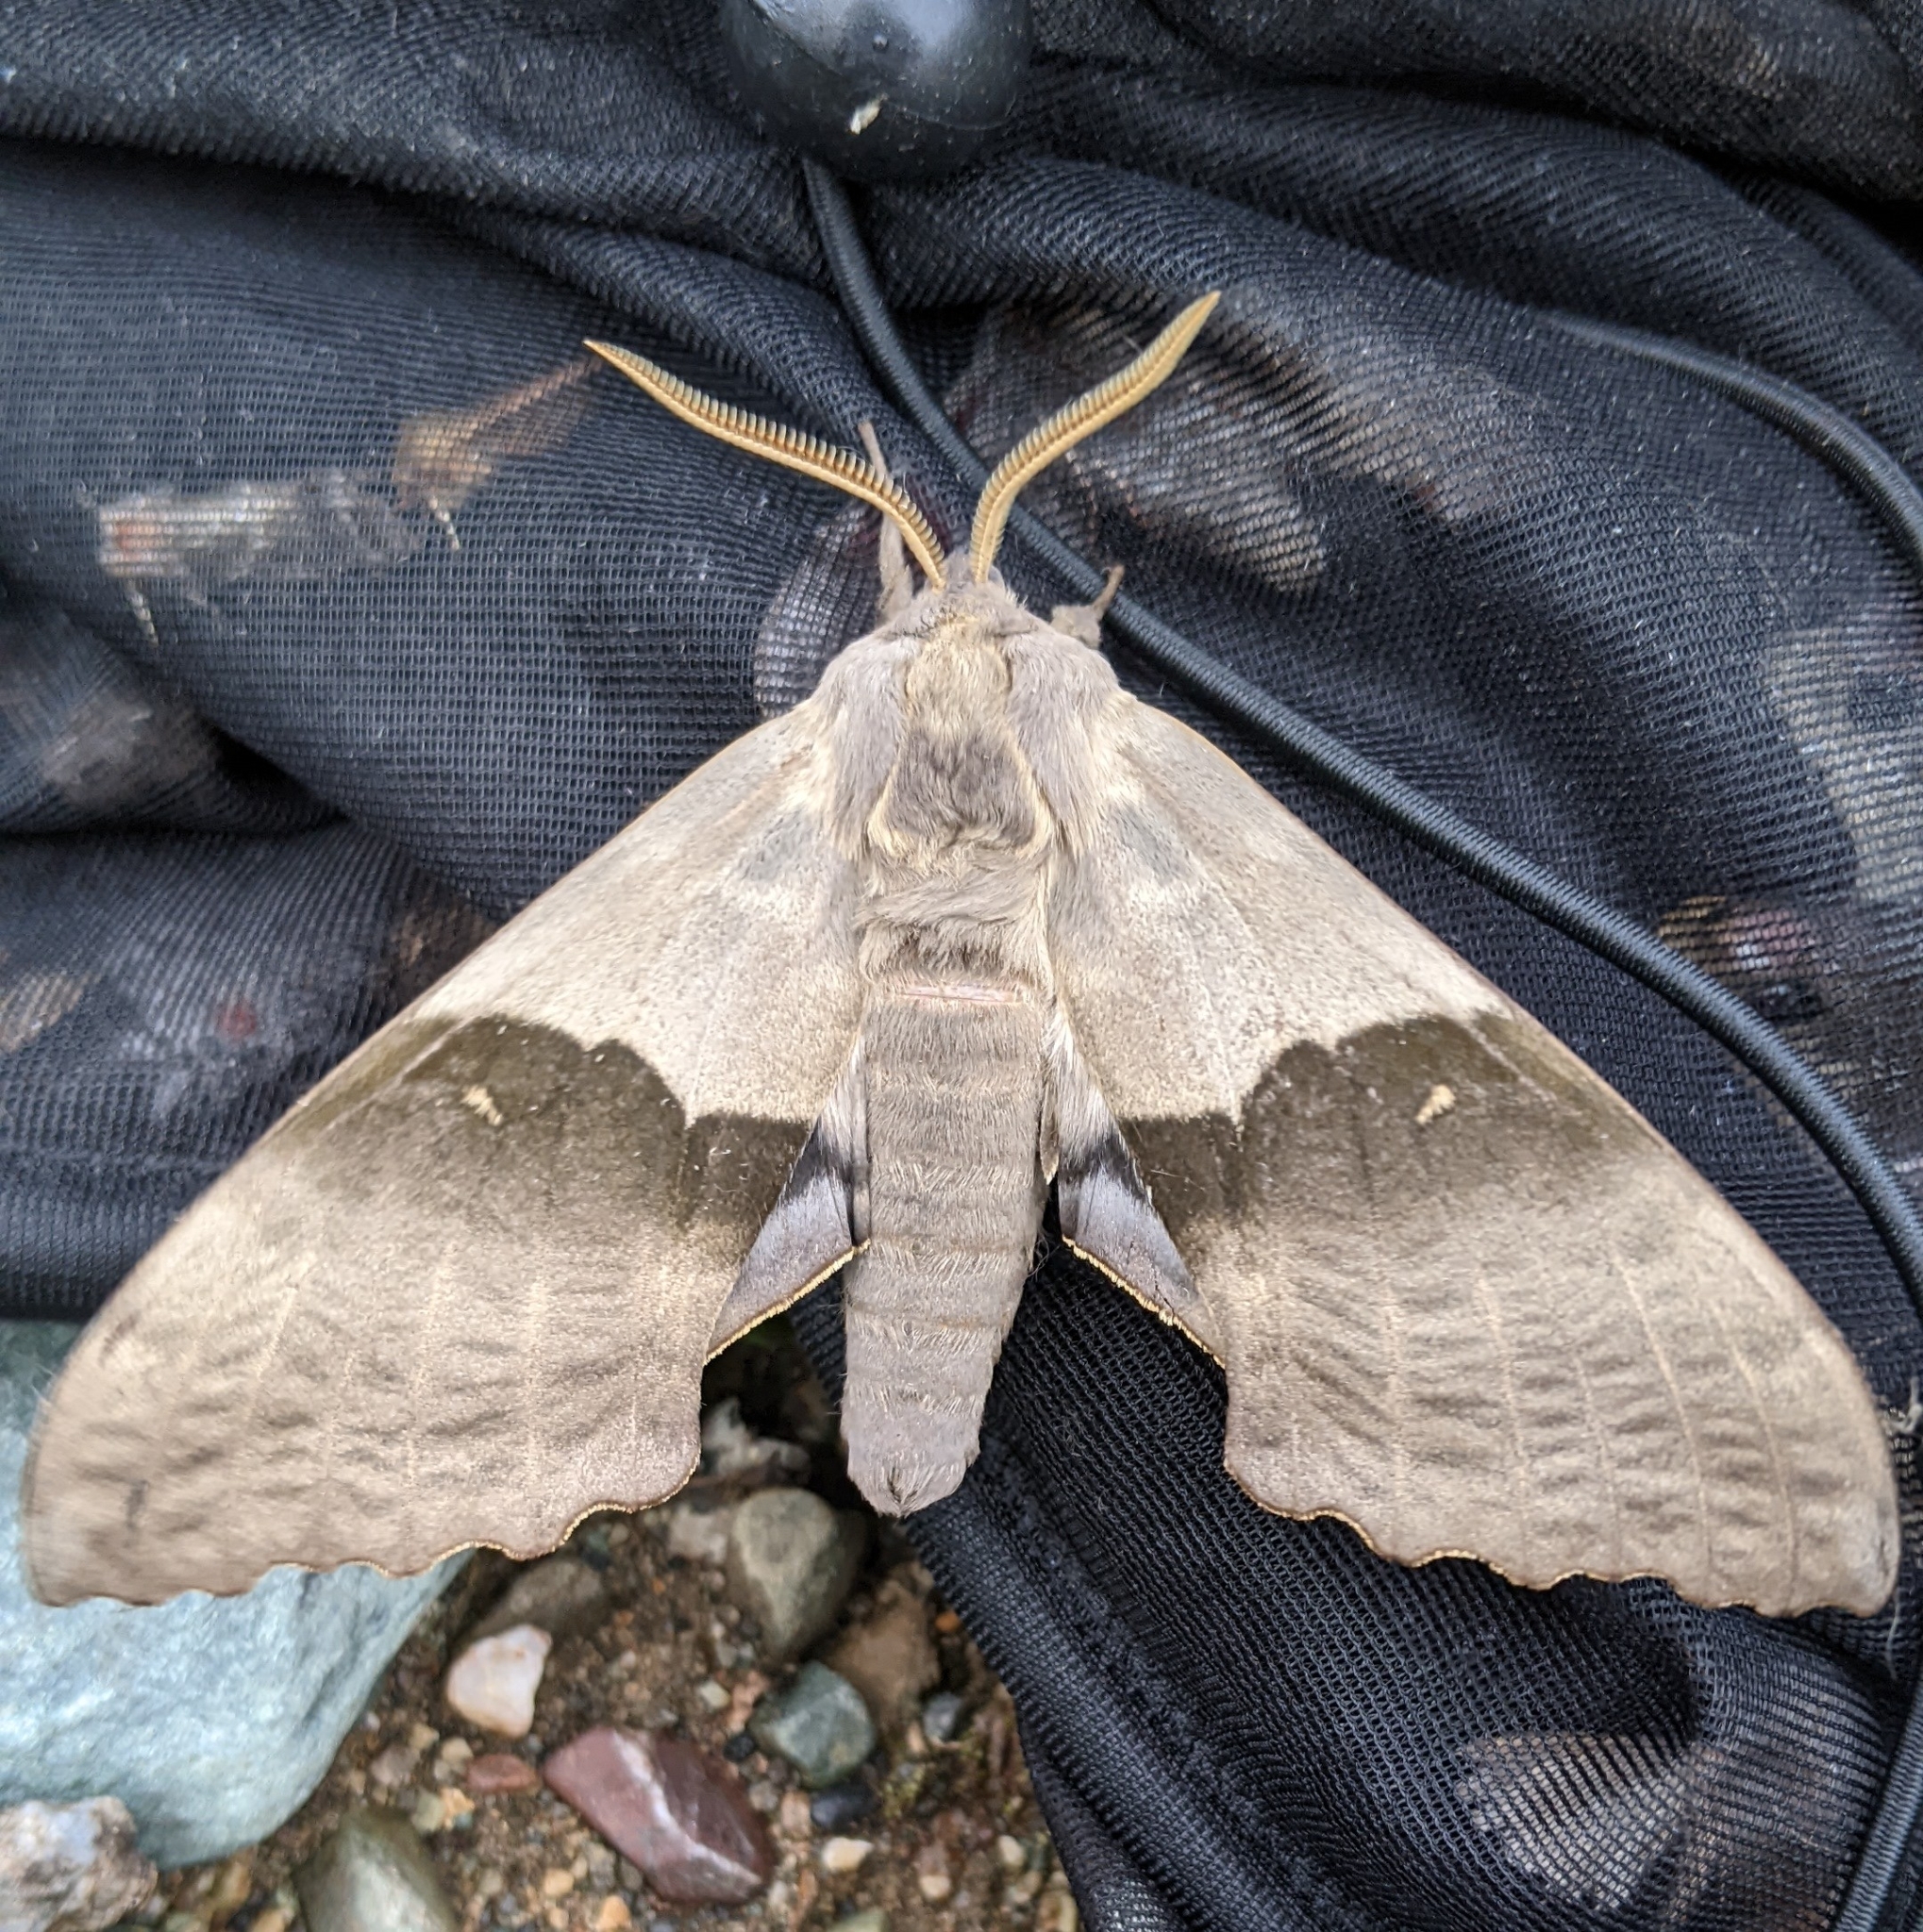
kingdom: Animalia
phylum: Arthropoda
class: Insecta
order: Lepidoptera
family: Sphingidae
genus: Pachysphinx
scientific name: Pachysphinx modesta
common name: Big poplar sphinx
